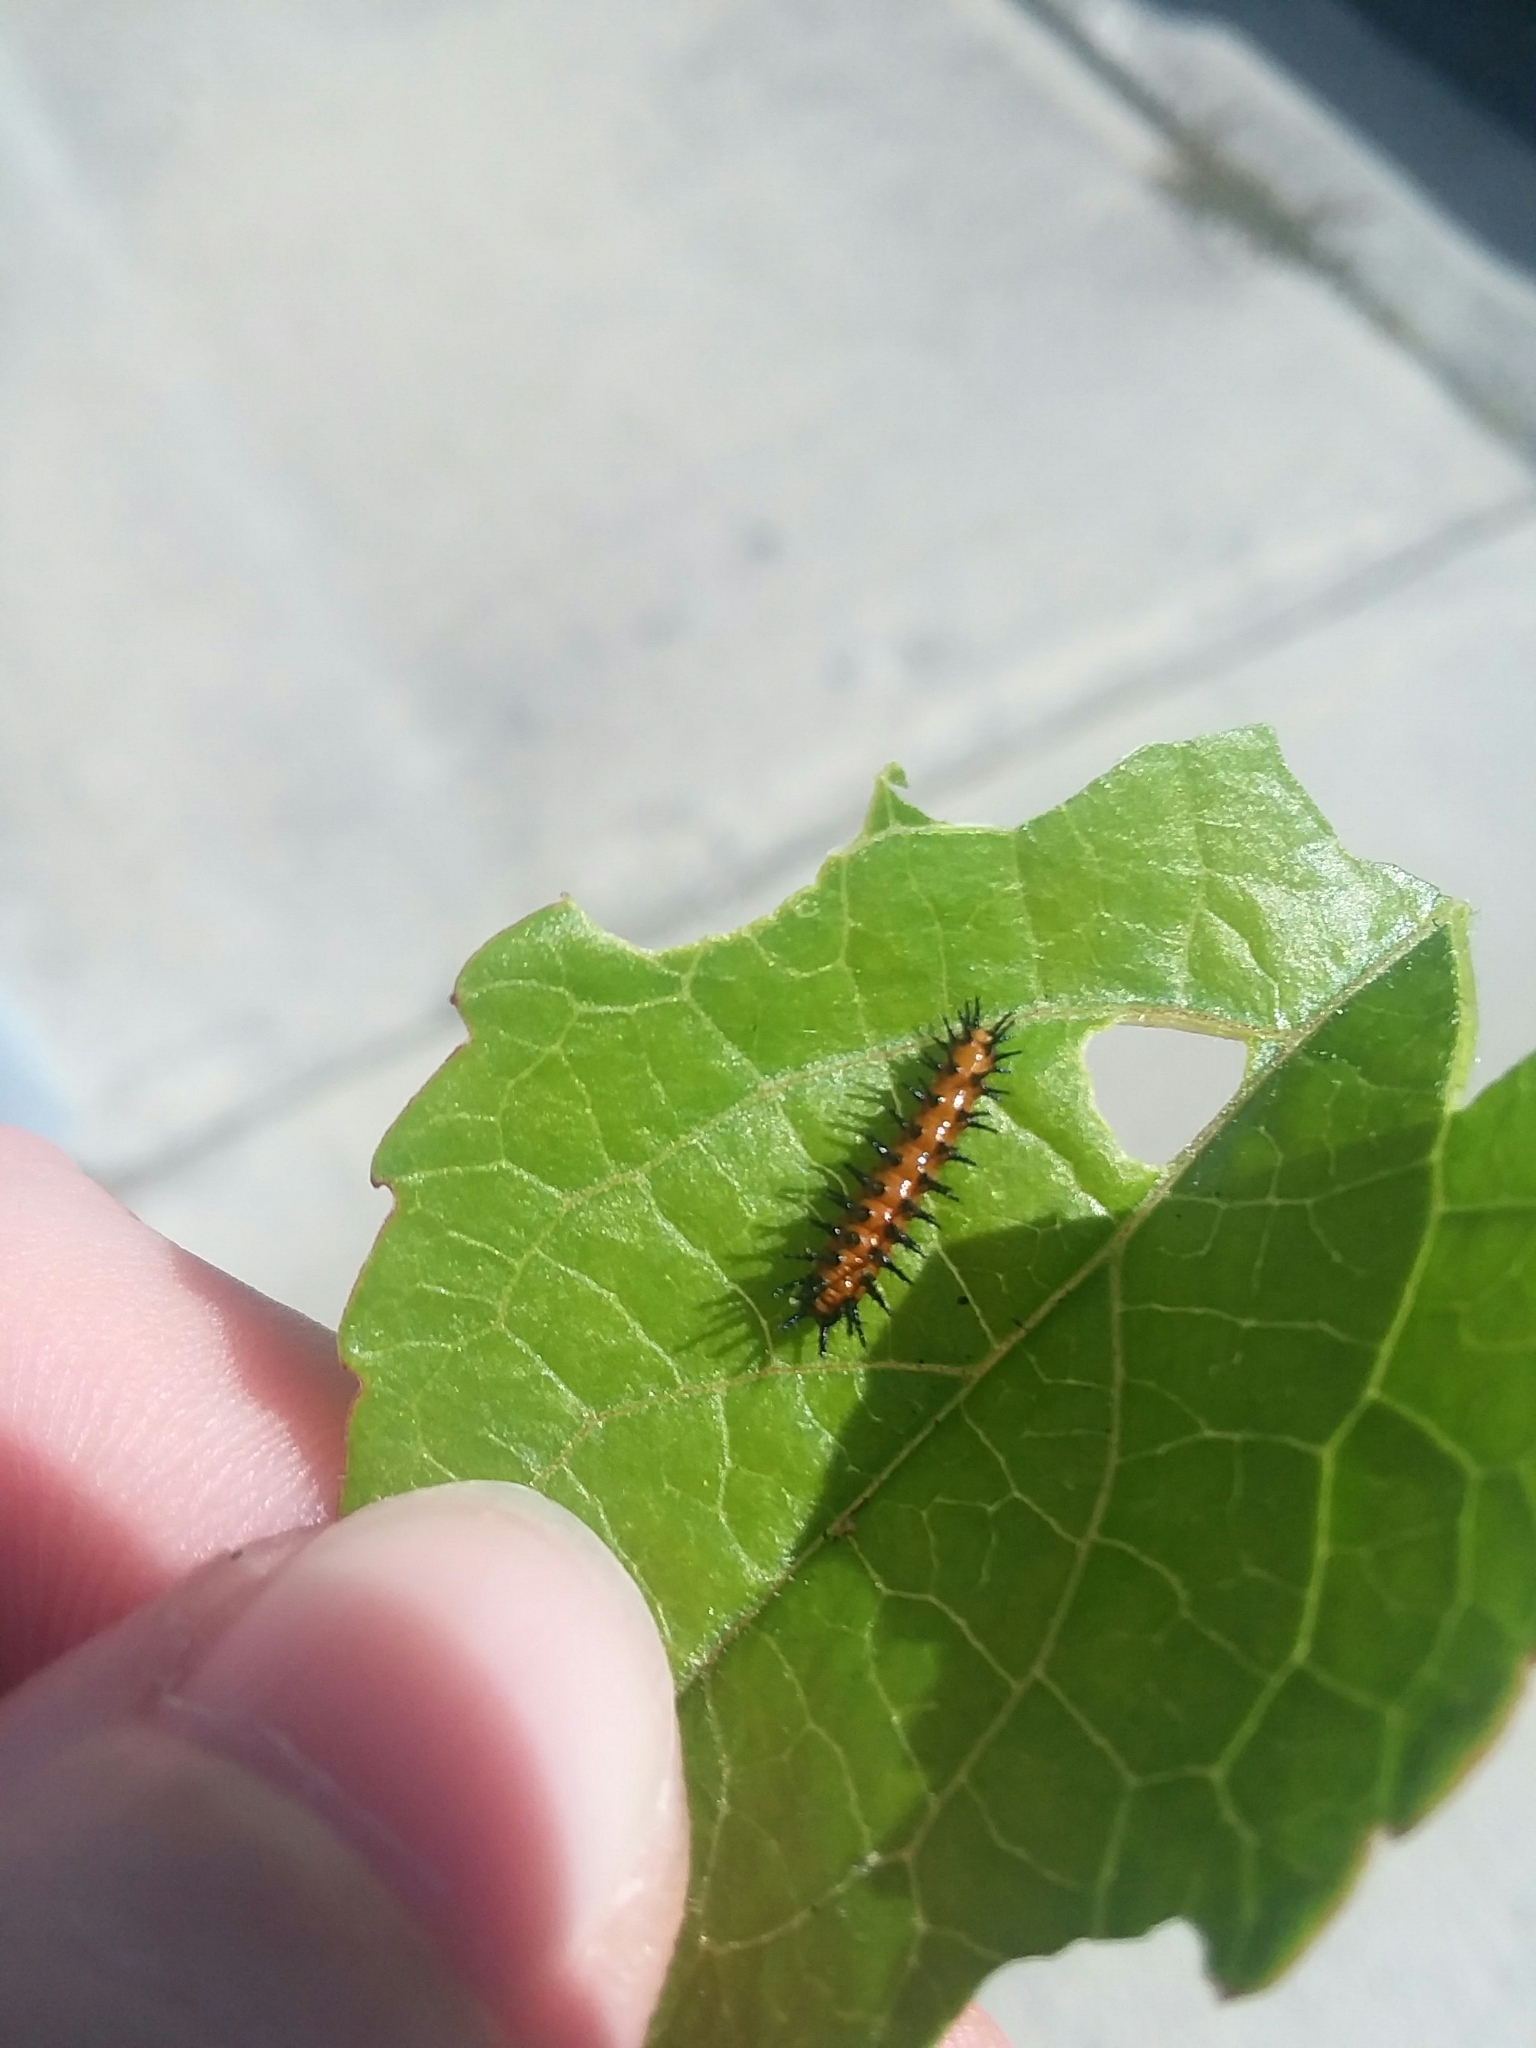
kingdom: Animalia
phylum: Arthropoda
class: Insecta
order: Lepidoptera
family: Nymphalidae
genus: Dione
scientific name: Dione vanillae
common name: Gulf fritillary
